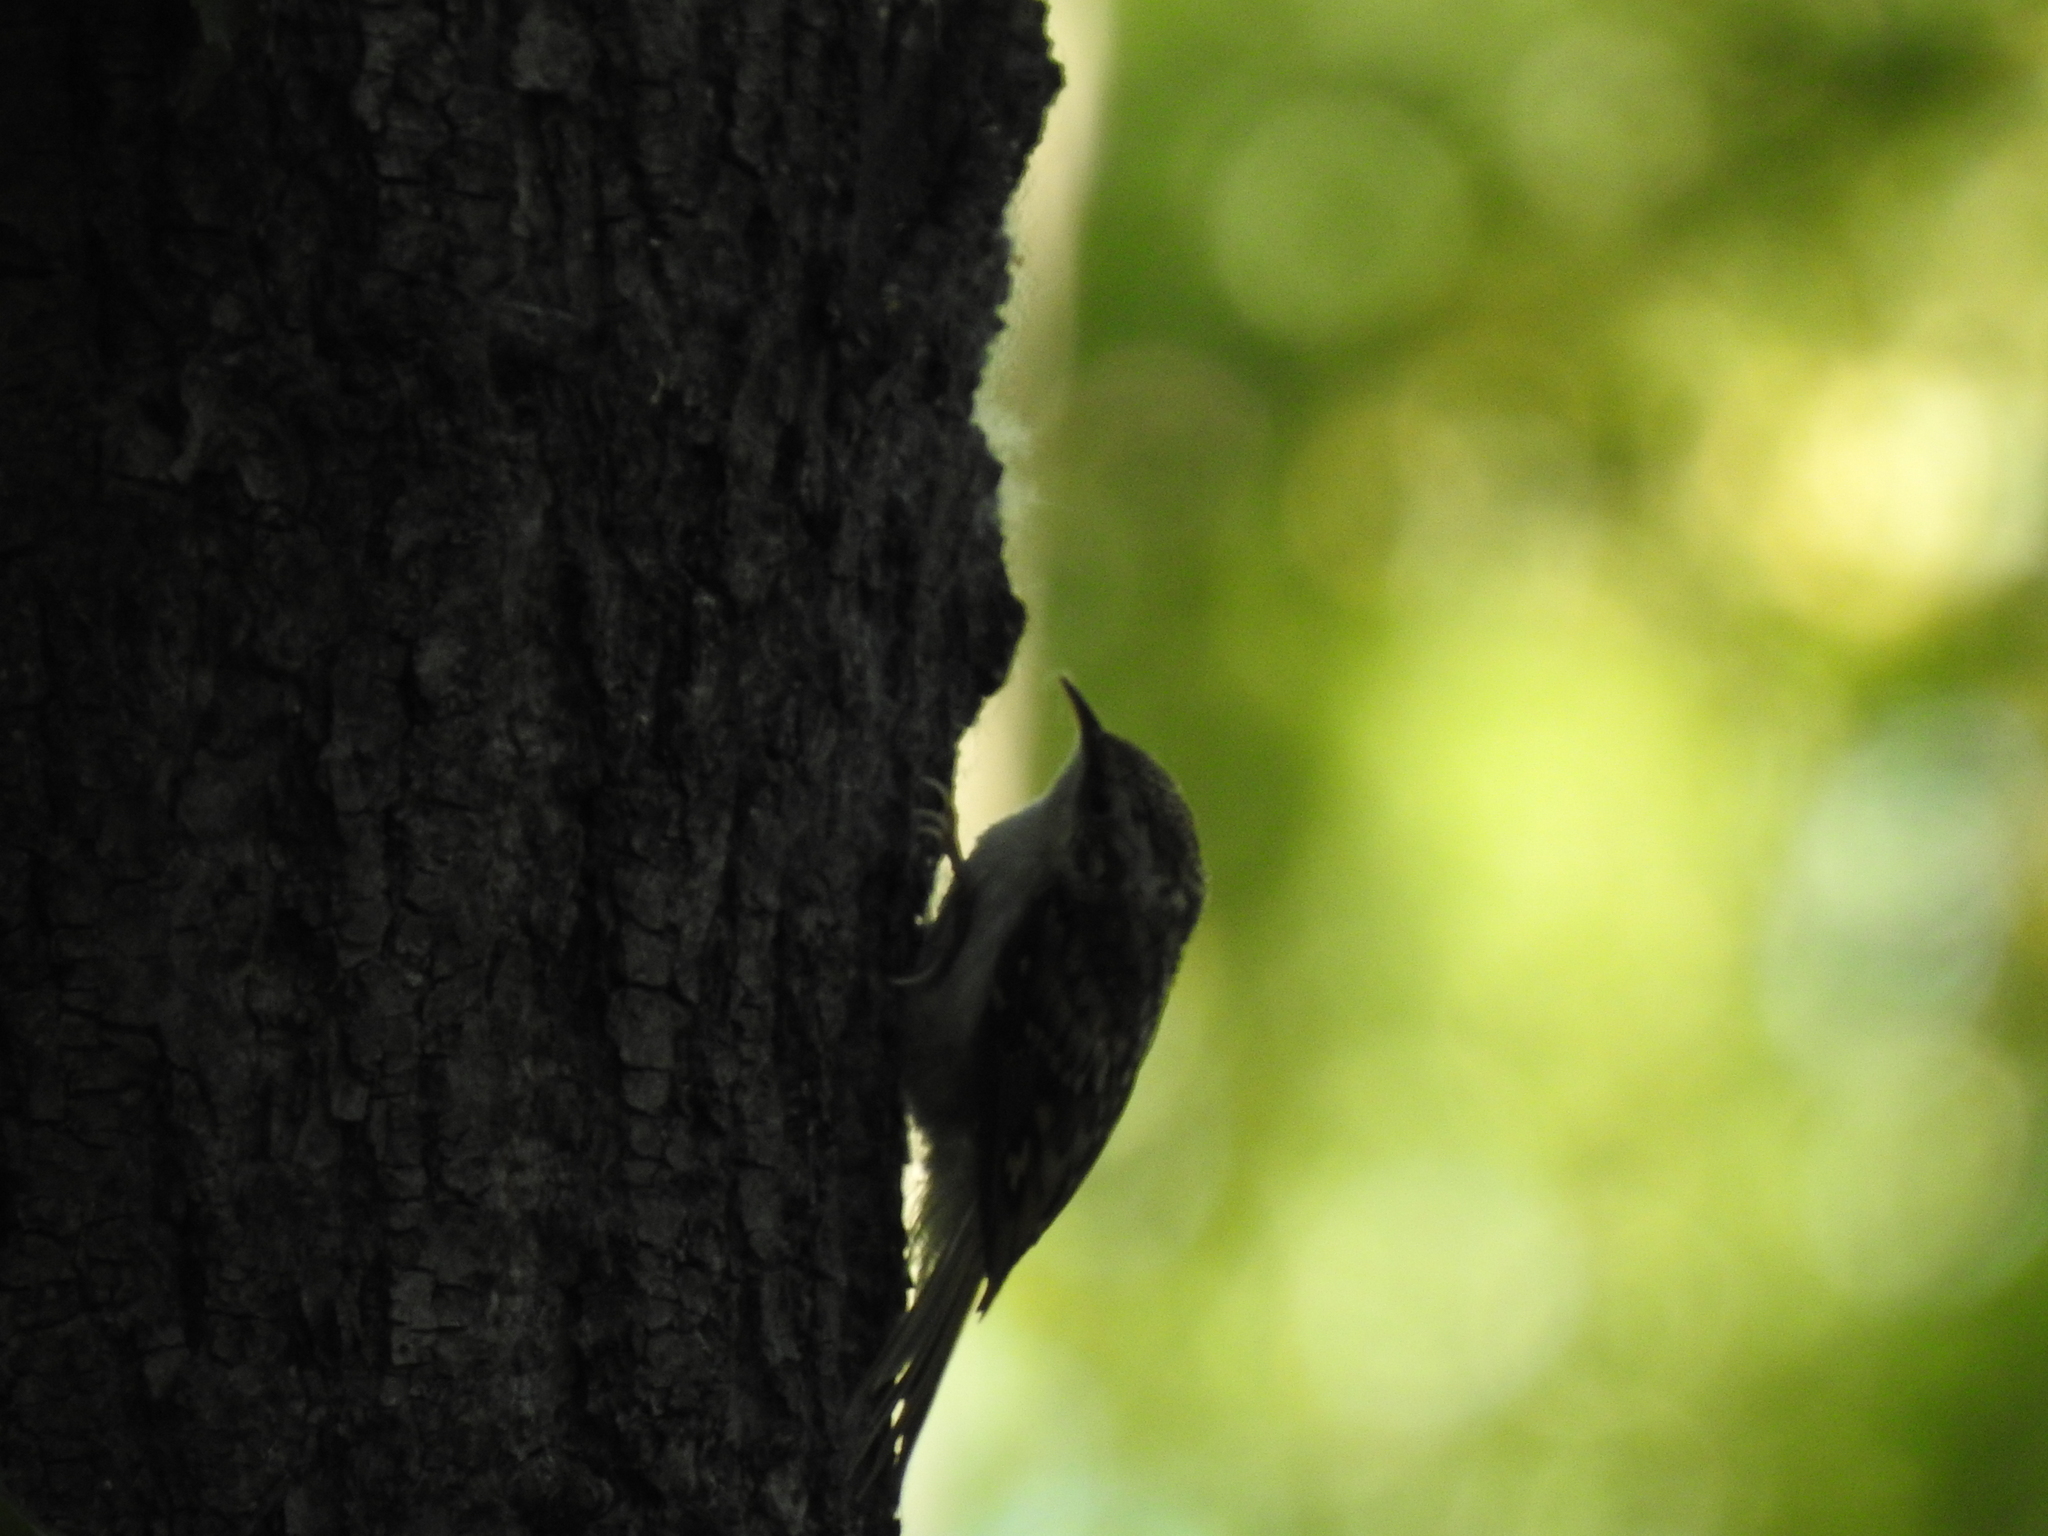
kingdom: Animalia
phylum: Chordata
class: Aves
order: Passeriformes
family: Certhiidae
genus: Certhia
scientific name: Certhia familiaris
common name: Eurasian treecreeper
